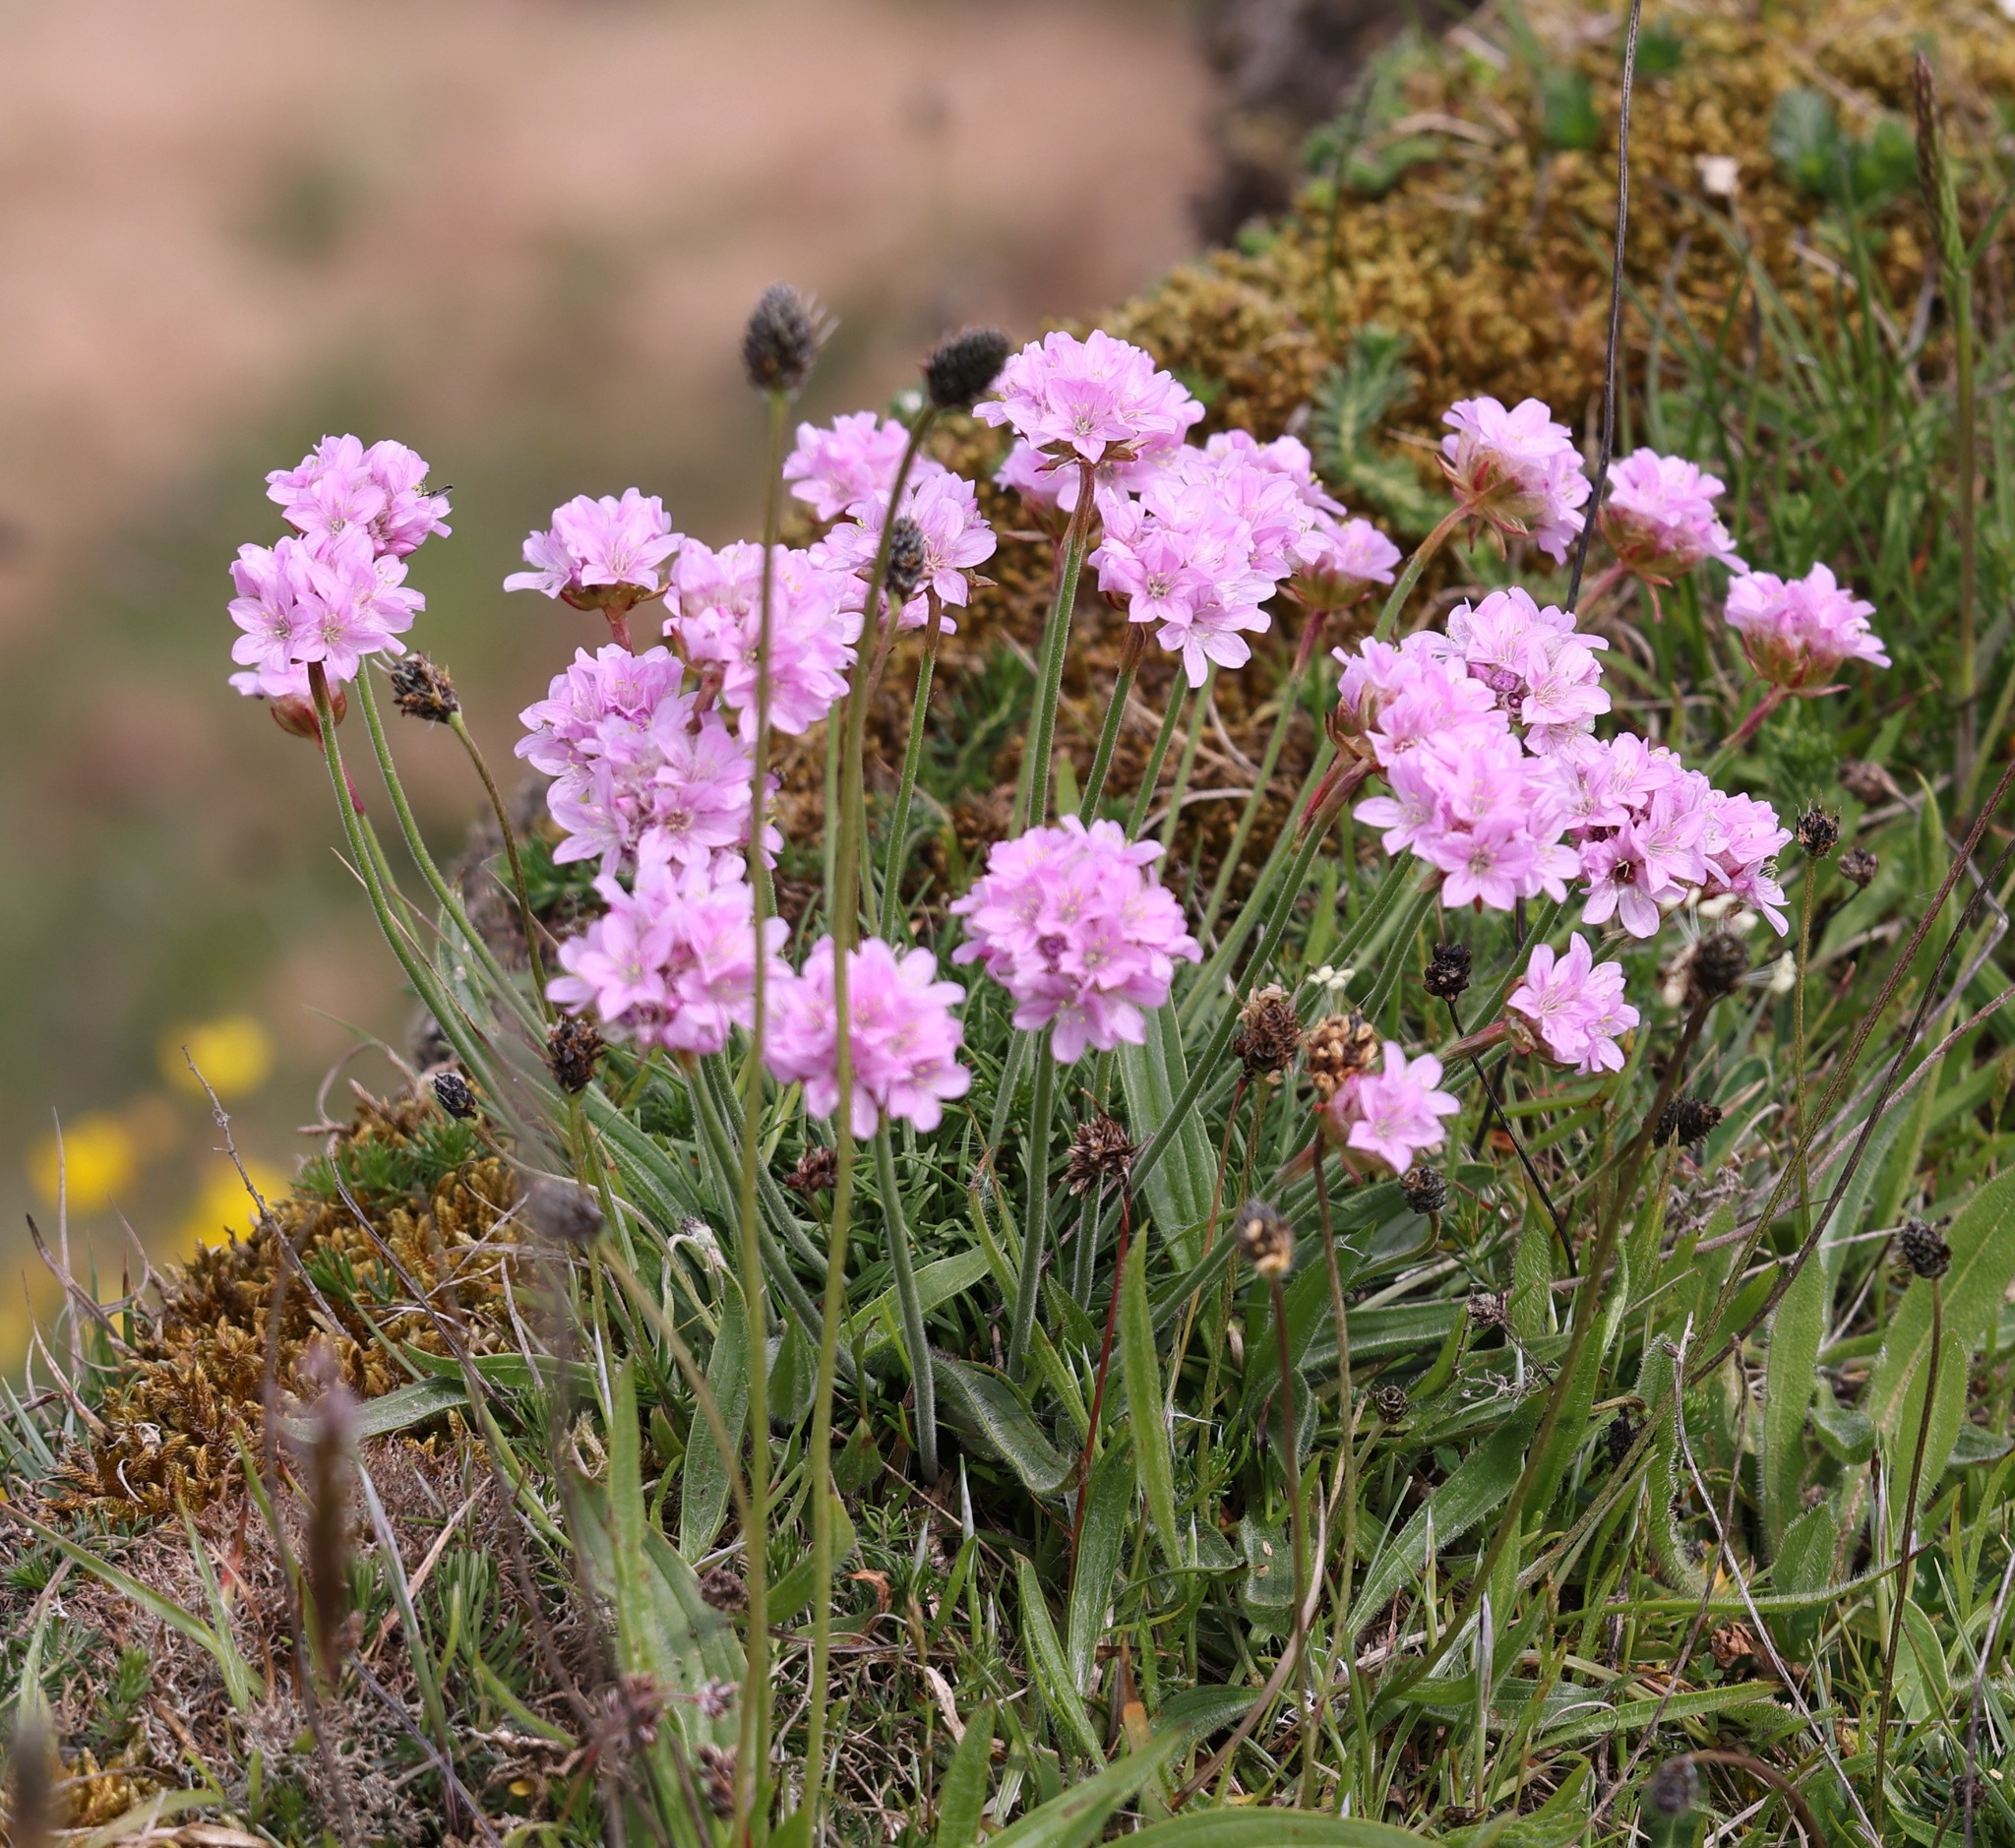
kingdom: Plantae
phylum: Tracheophyta
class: Magnoliopsida
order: Caryophyllales
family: Plumbaginaceae
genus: Armeria
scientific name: Armeria maritima
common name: Thrift
